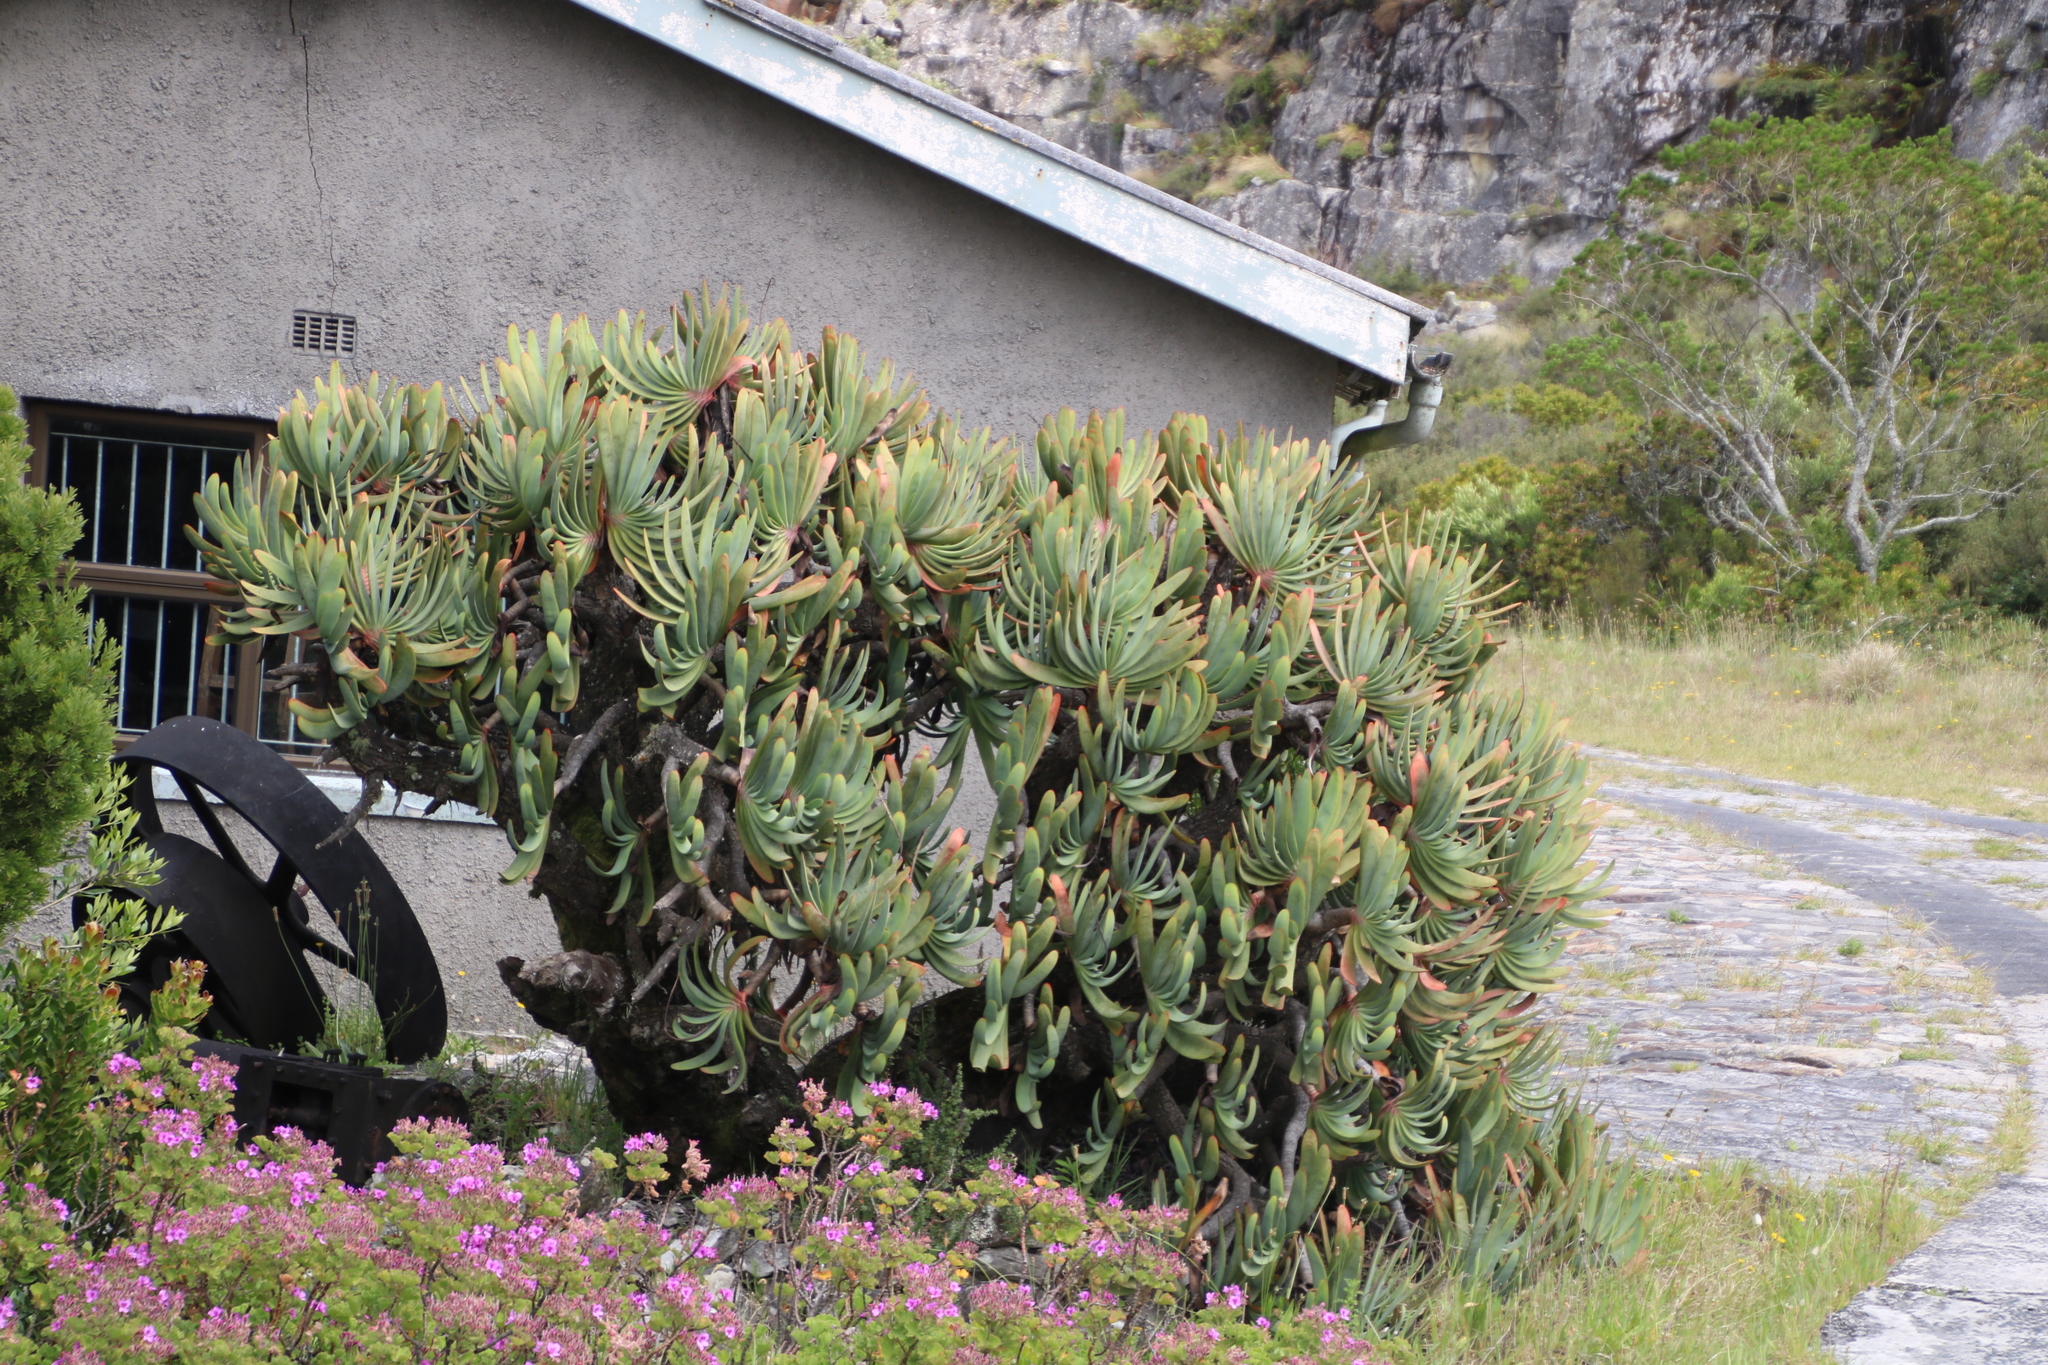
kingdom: Plantae
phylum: Tracheophyta
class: Liliopsida
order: Asparagales
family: Asphodelaceae
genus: Kumara
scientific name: Kumara plicatilis
